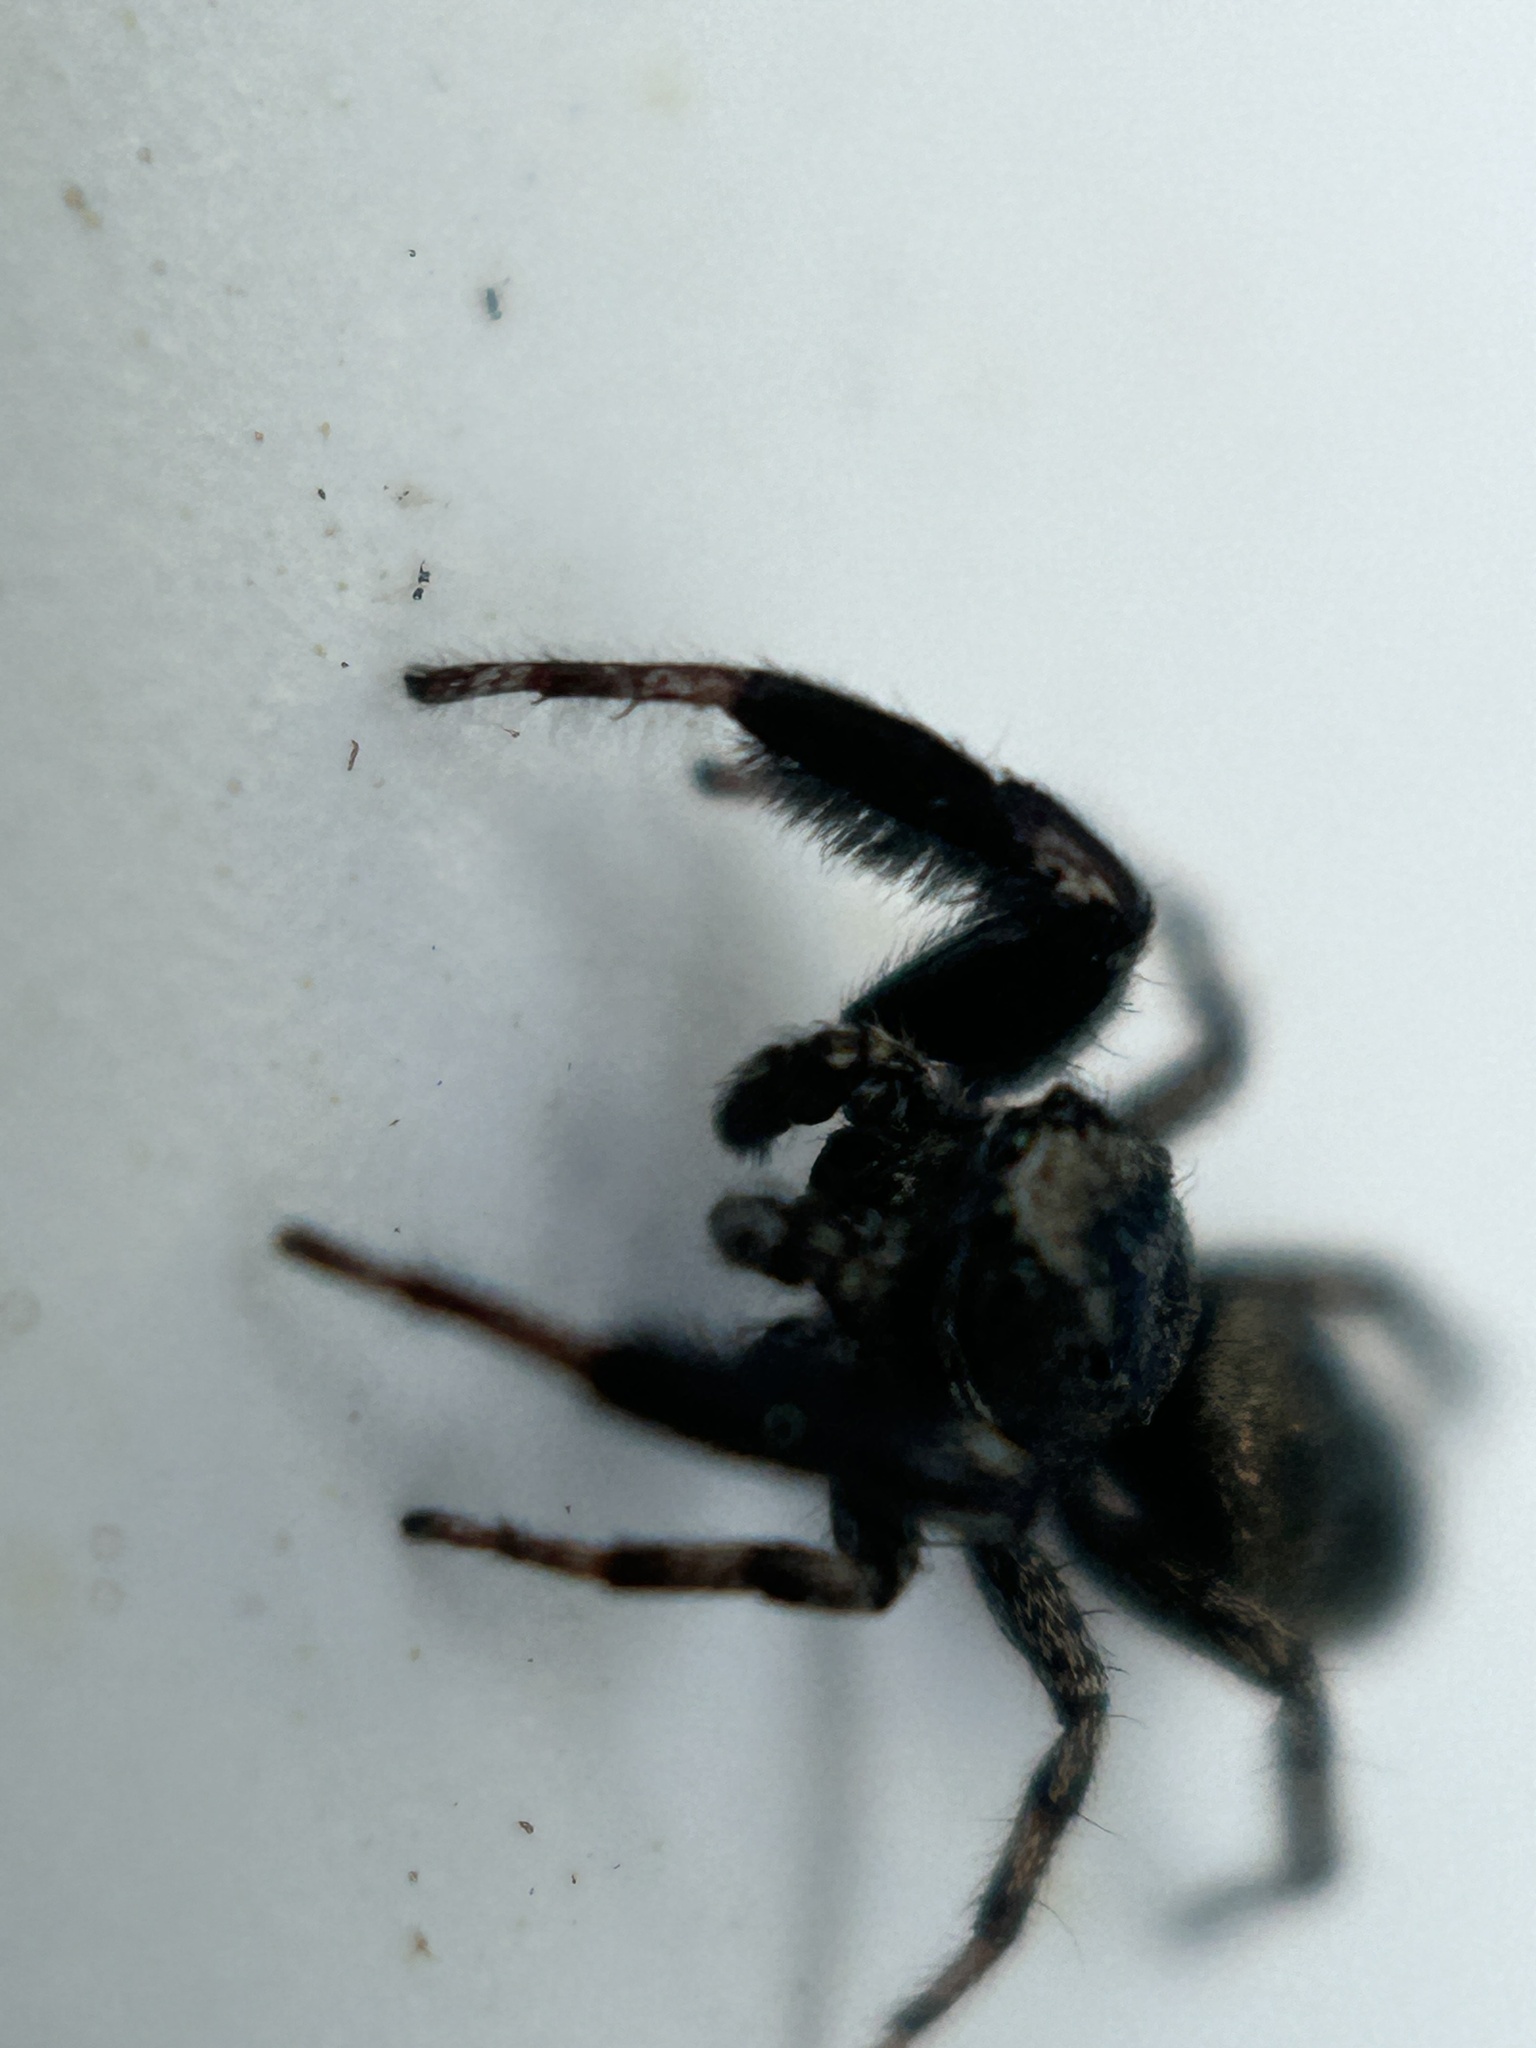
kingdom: Animalia
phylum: Arthropoda
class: Arachnida
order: Araneae
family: Salticidae
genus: Tutelina
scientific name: Tutelina harti
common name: Hart's jumping spider
